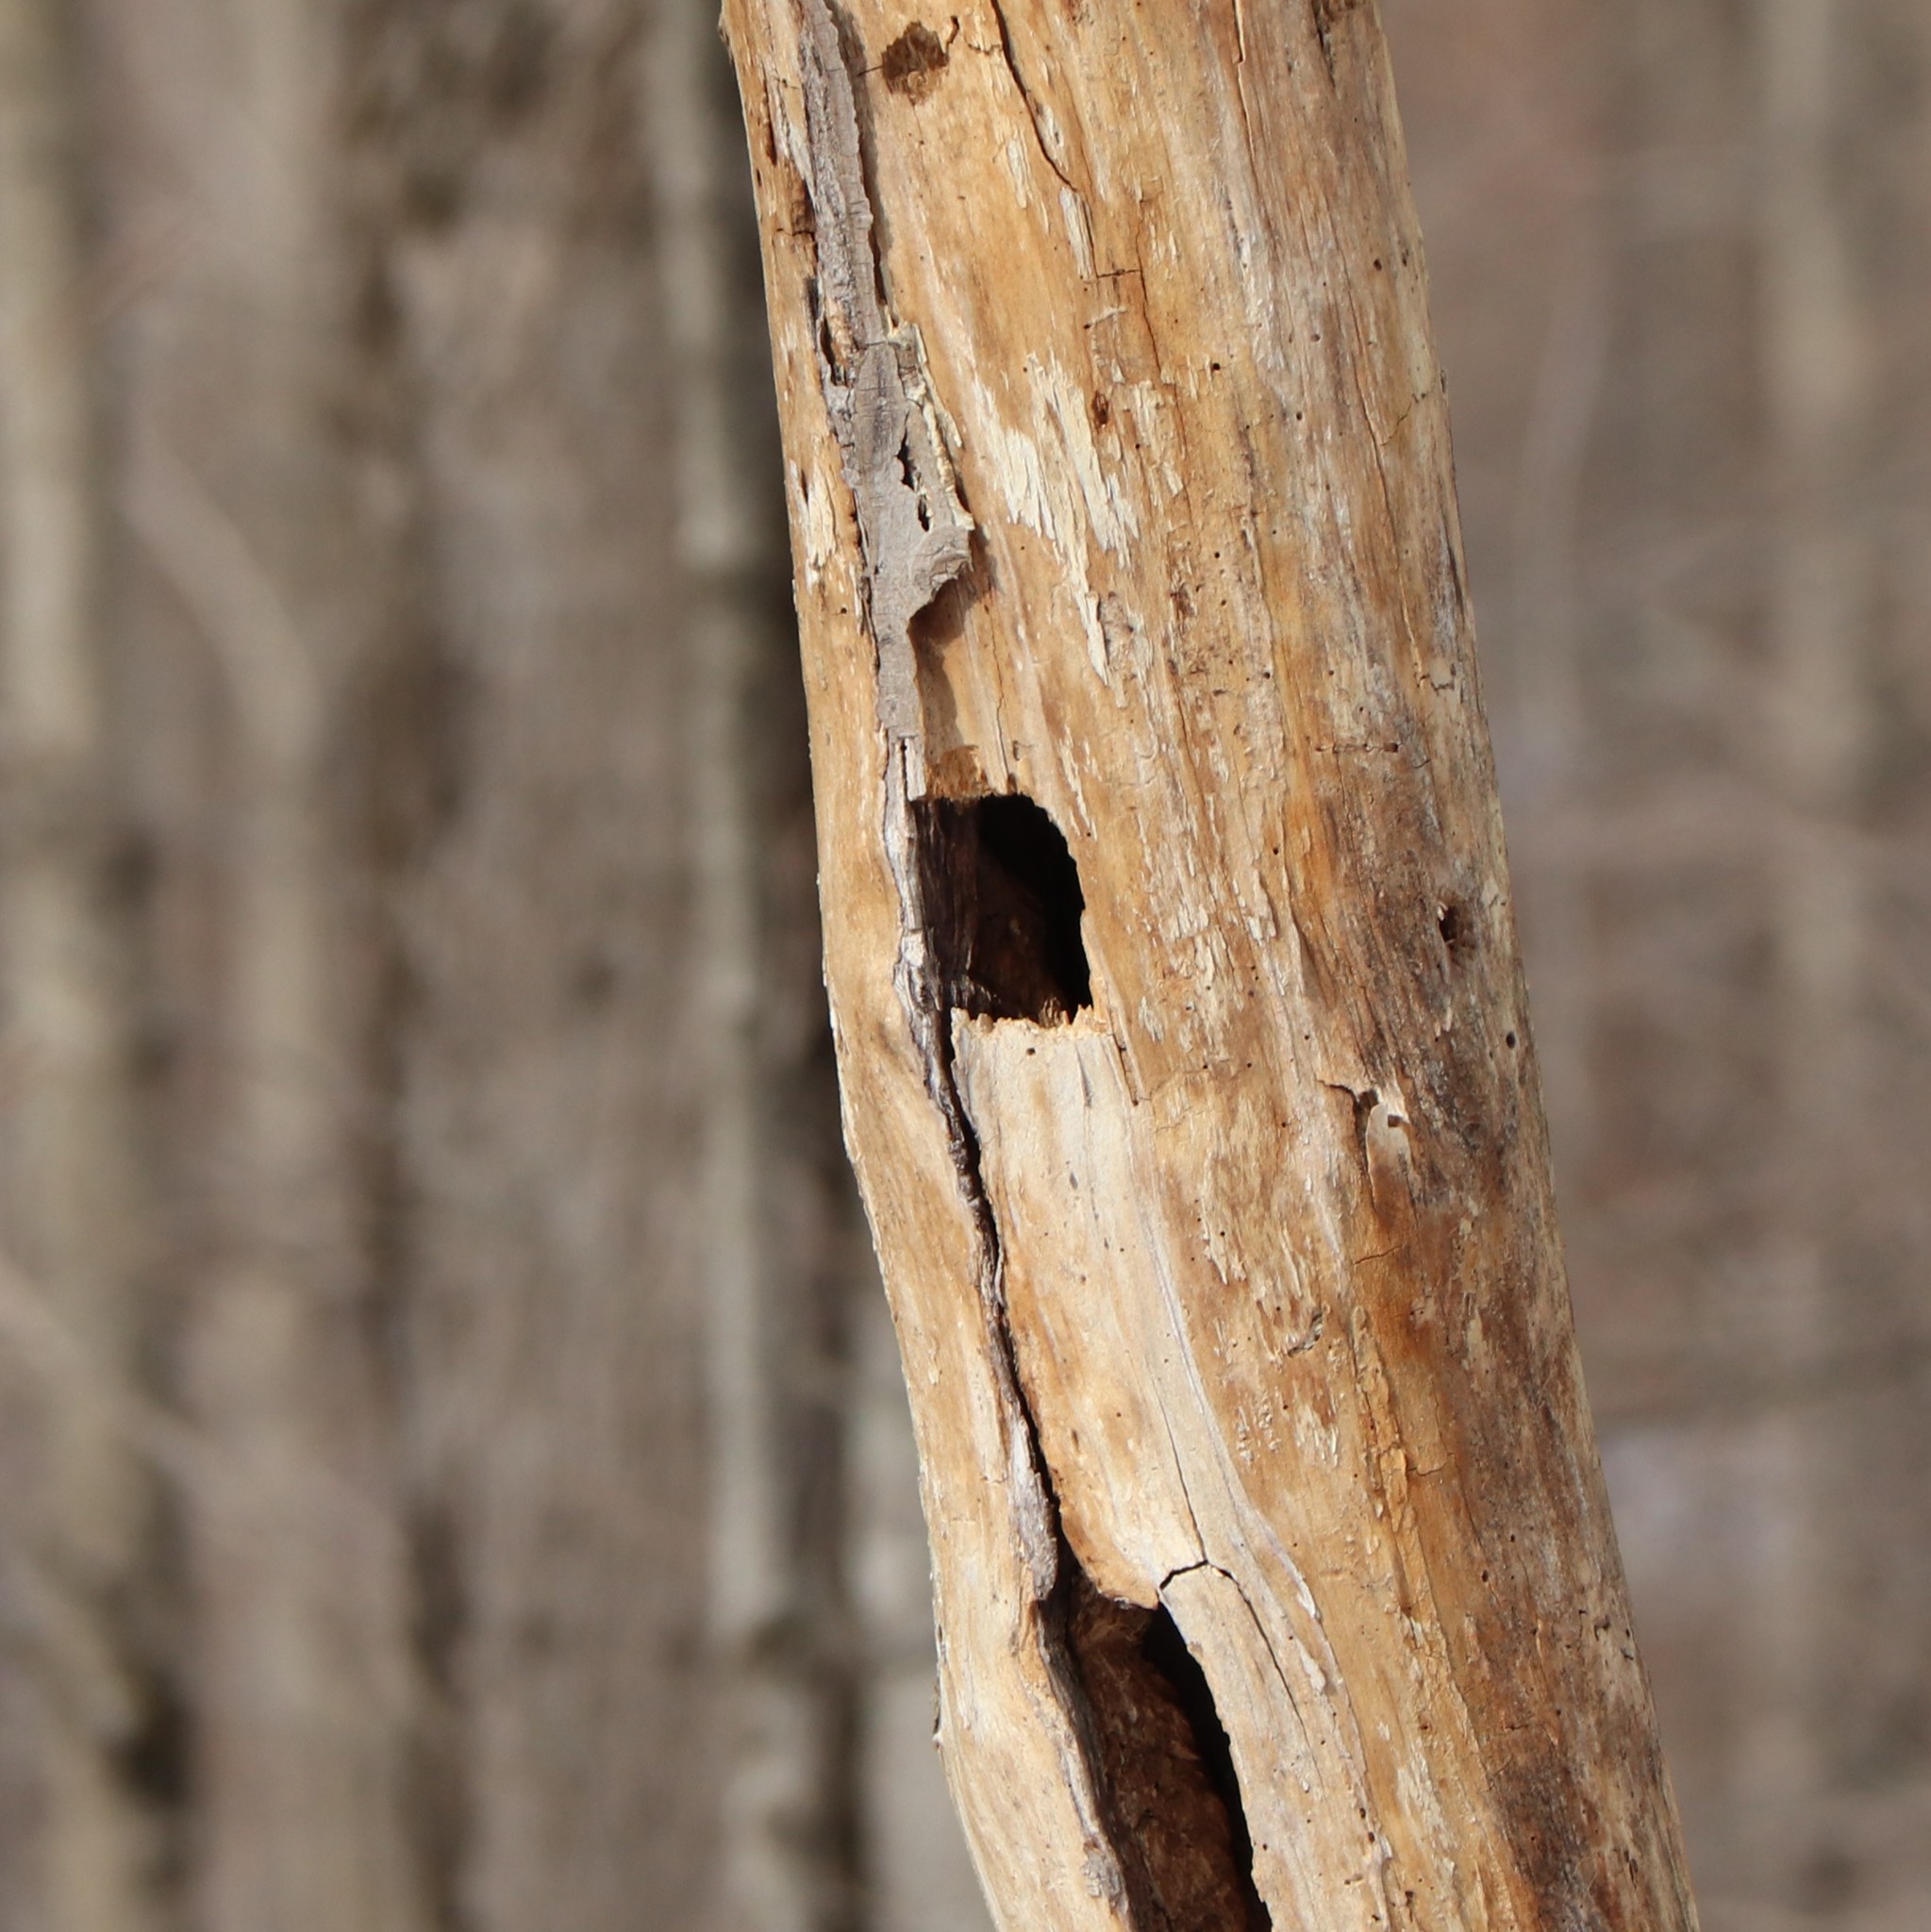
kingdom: Animalia
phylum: Chordata
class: Aves
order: Piciformes
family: Picidae
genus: Dryocopus
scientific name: Dryocopus pileatus
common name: Pileated woodpecker
